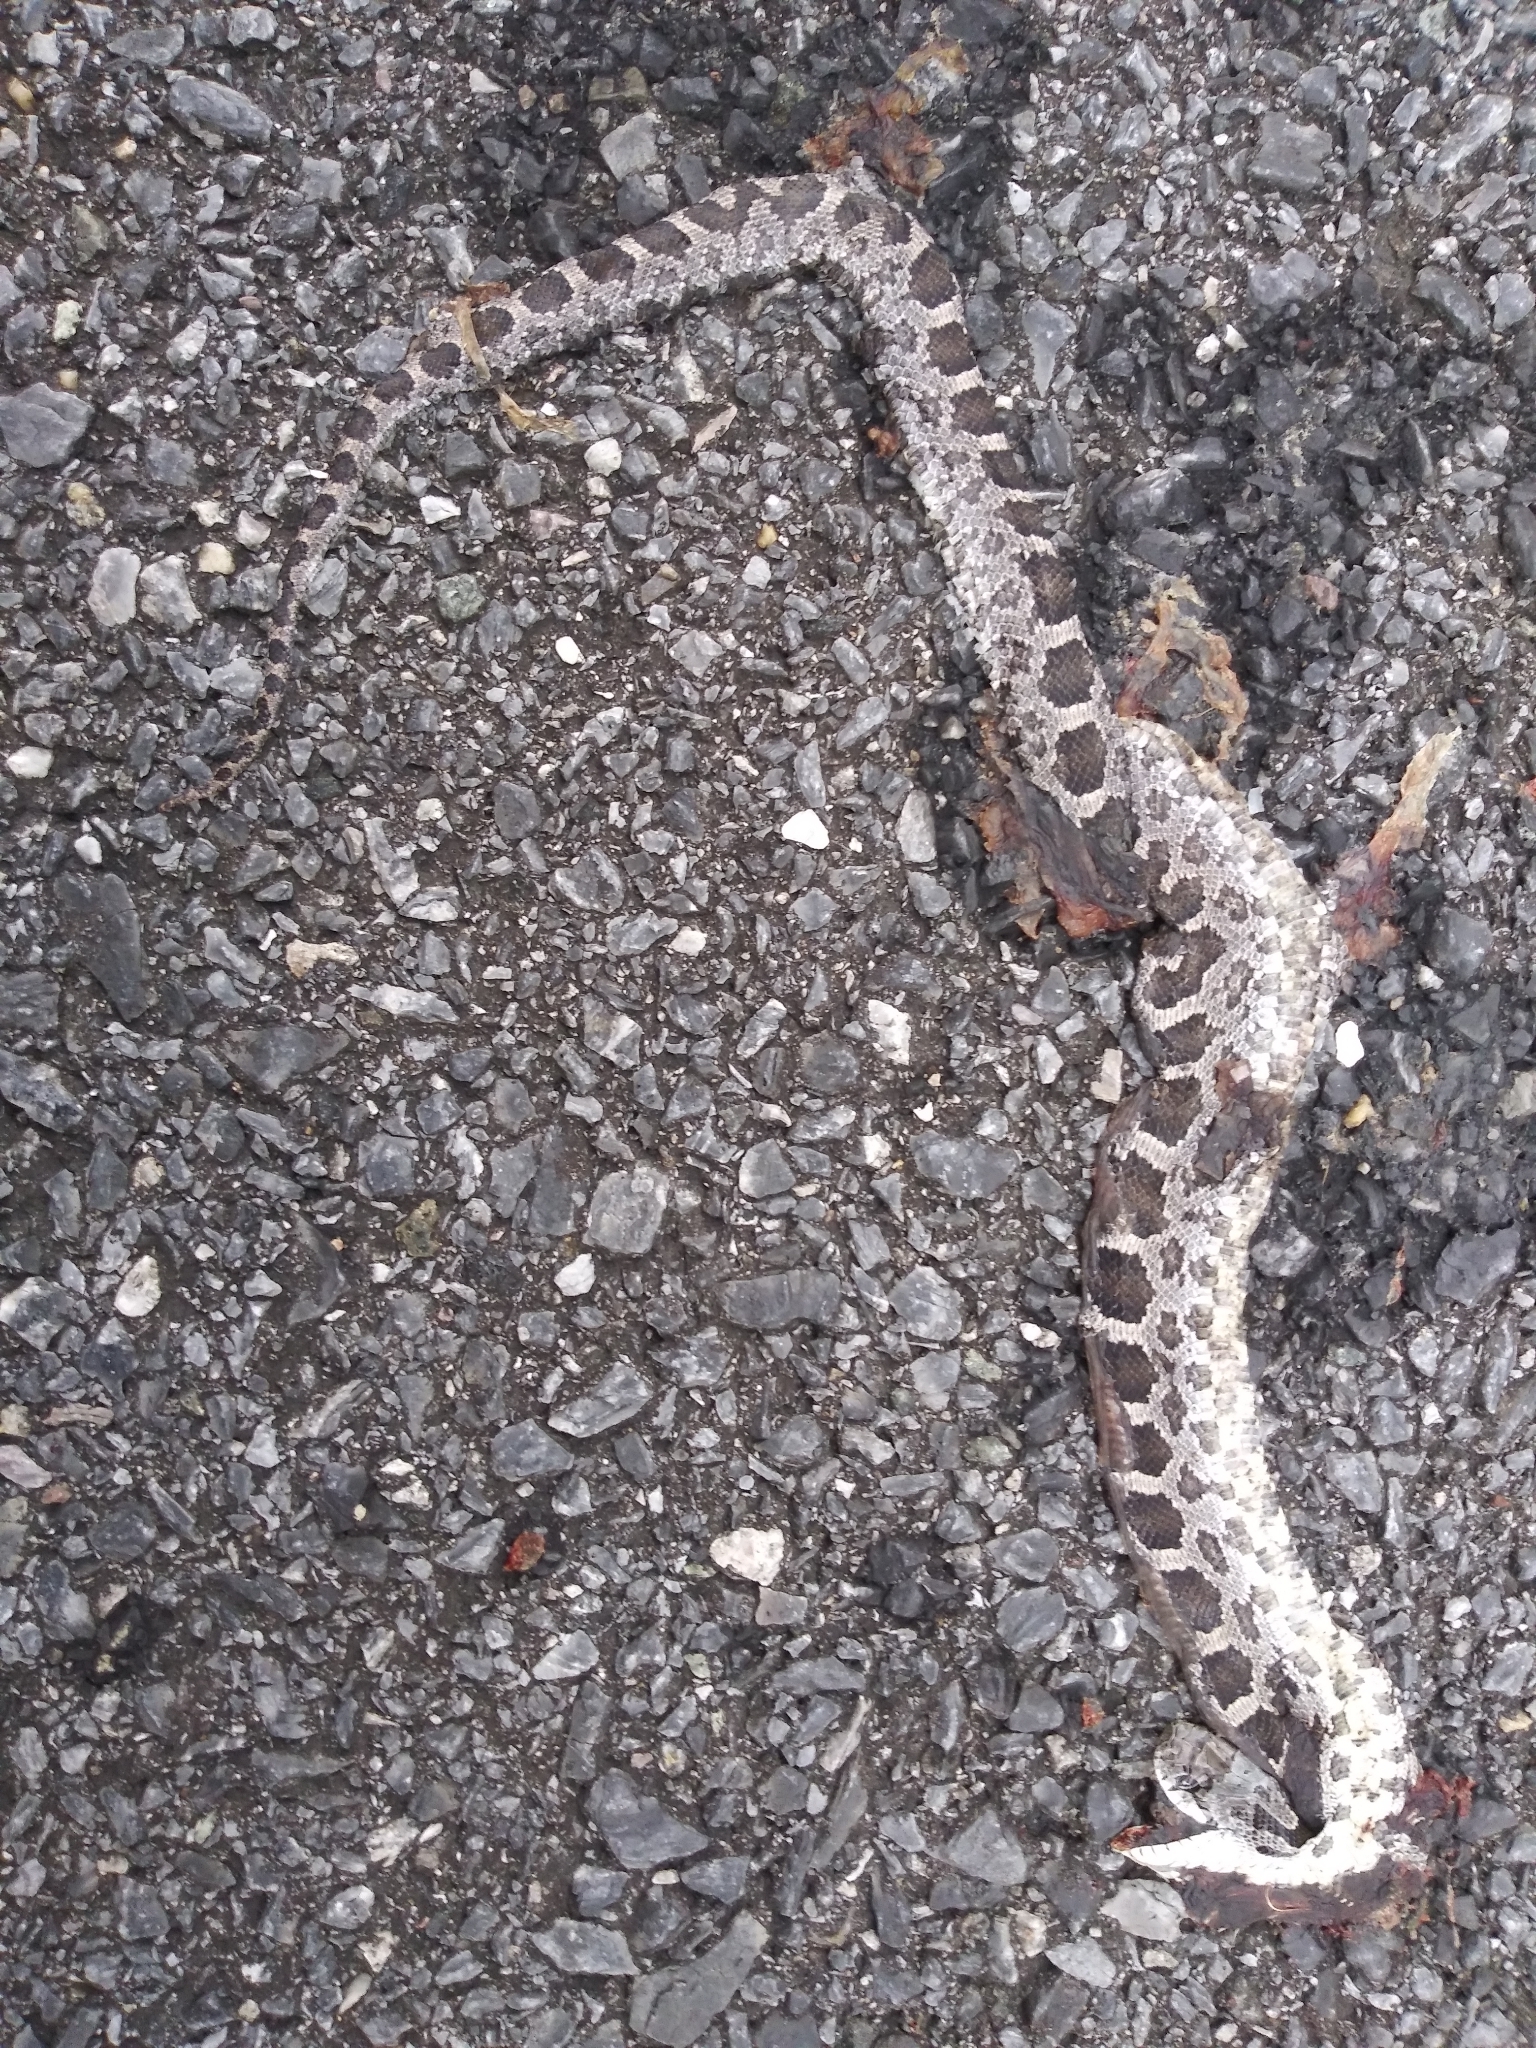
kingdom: Animalia
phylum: Chordata
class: Squamata
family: Colubridae
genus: Pantherophis
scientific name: Pantherophis
